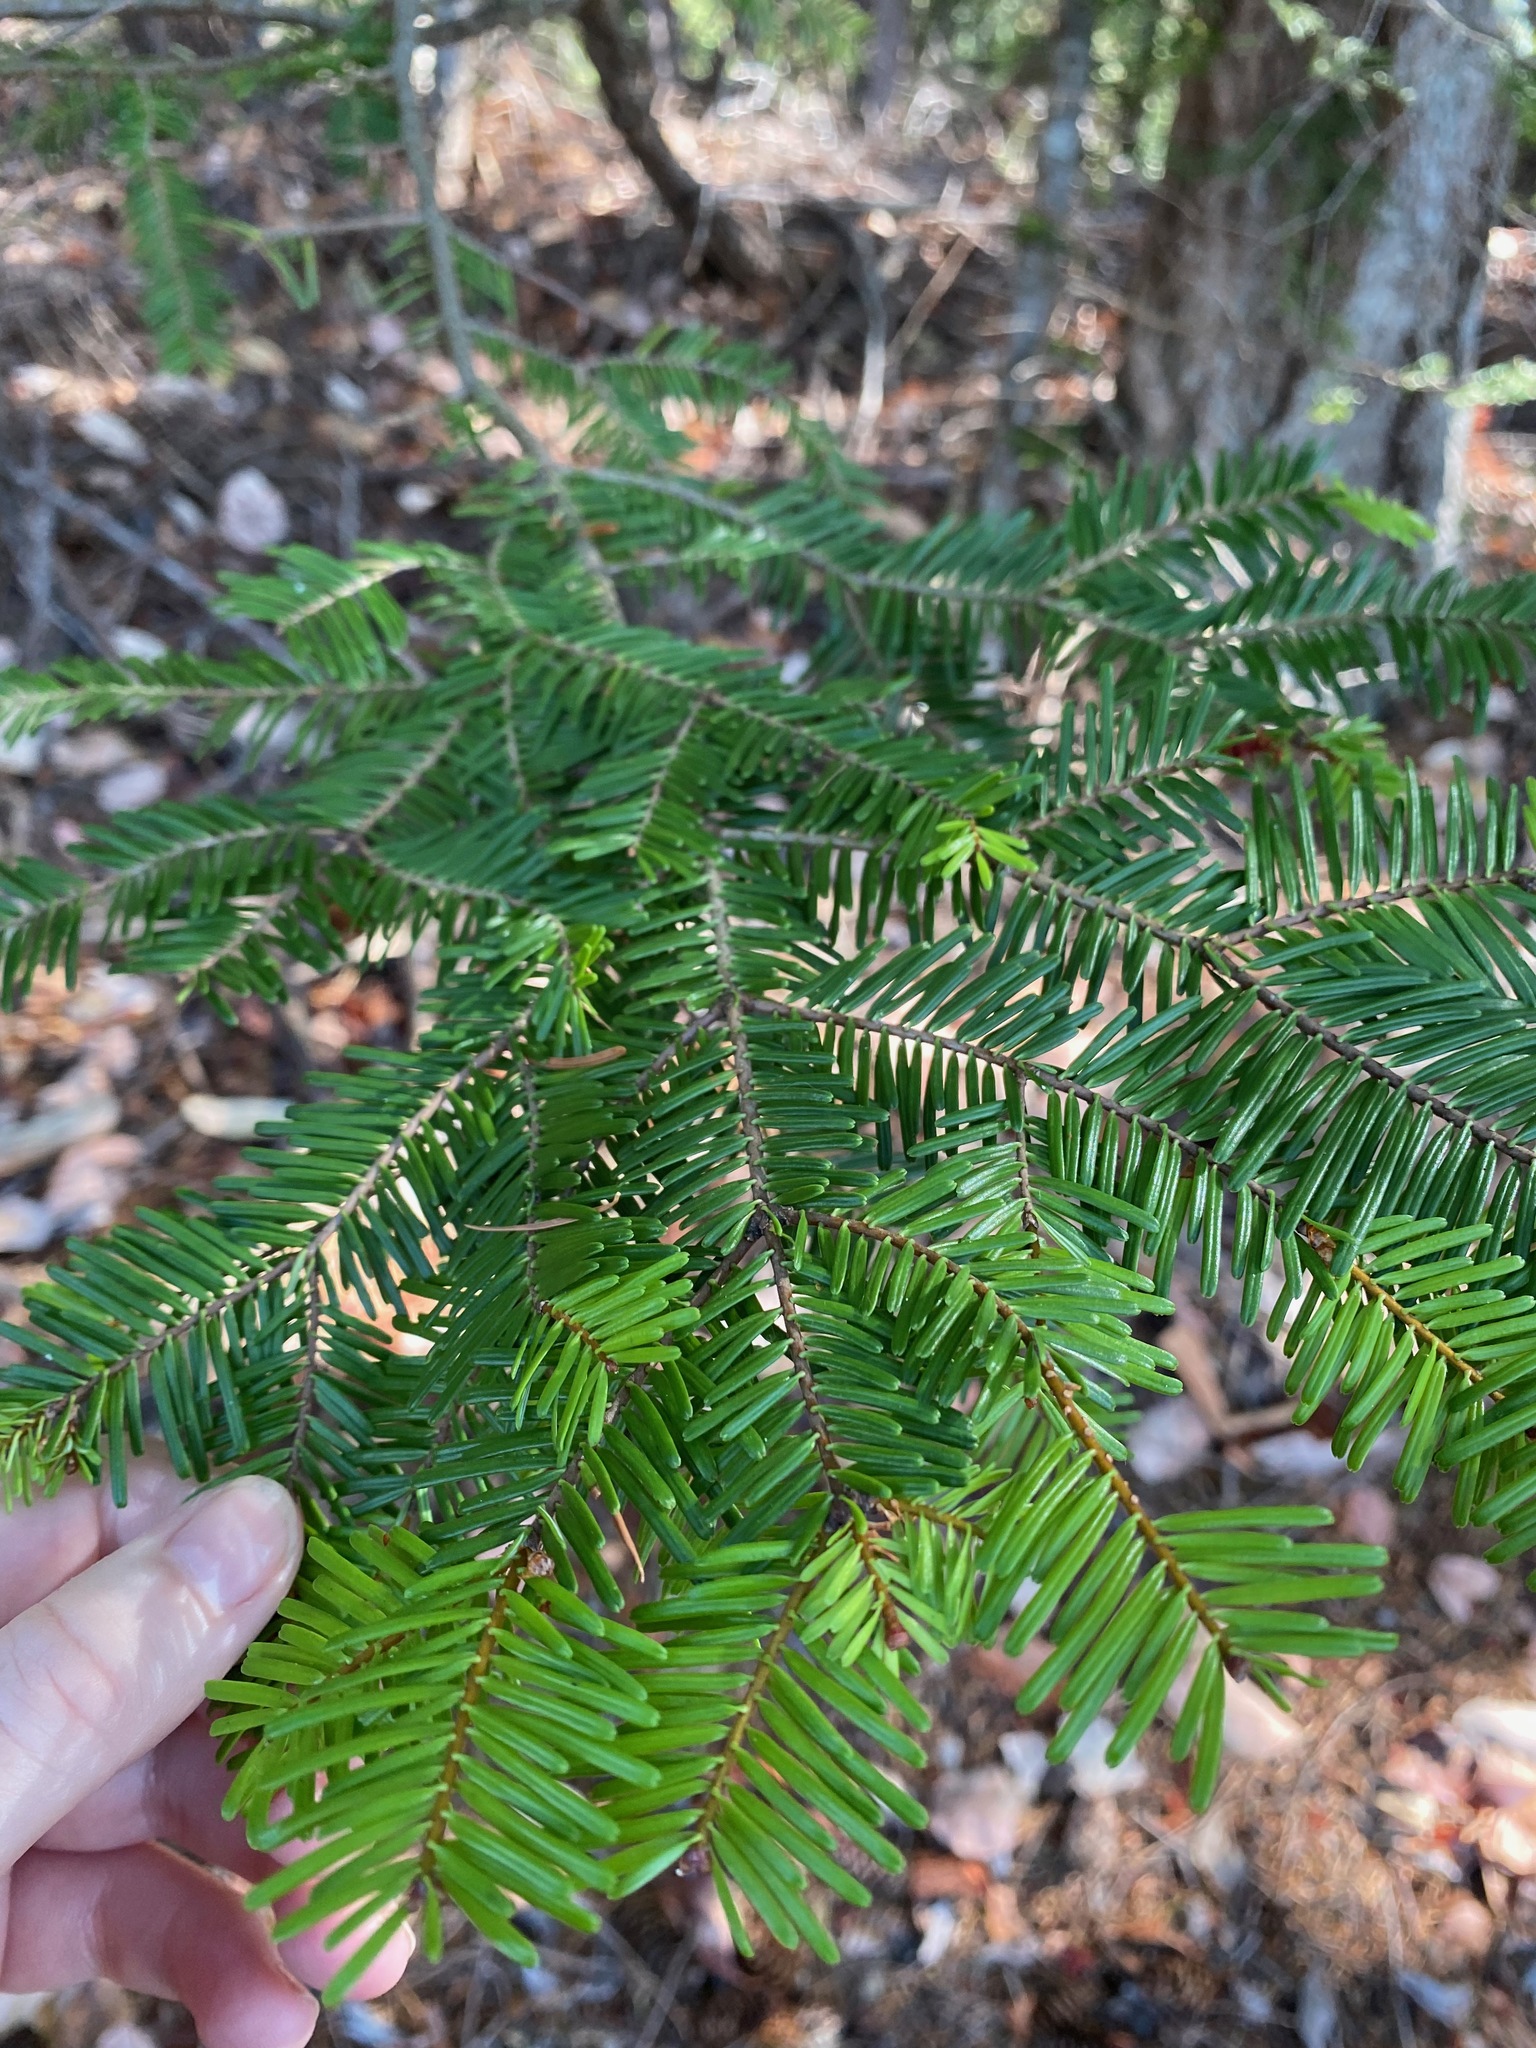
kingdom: Plantae
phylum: Tracheophyta
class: Pinopsida
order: Pinales
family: Pinaceae
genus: Abies
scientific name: Abies grandis
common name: Giant fir
